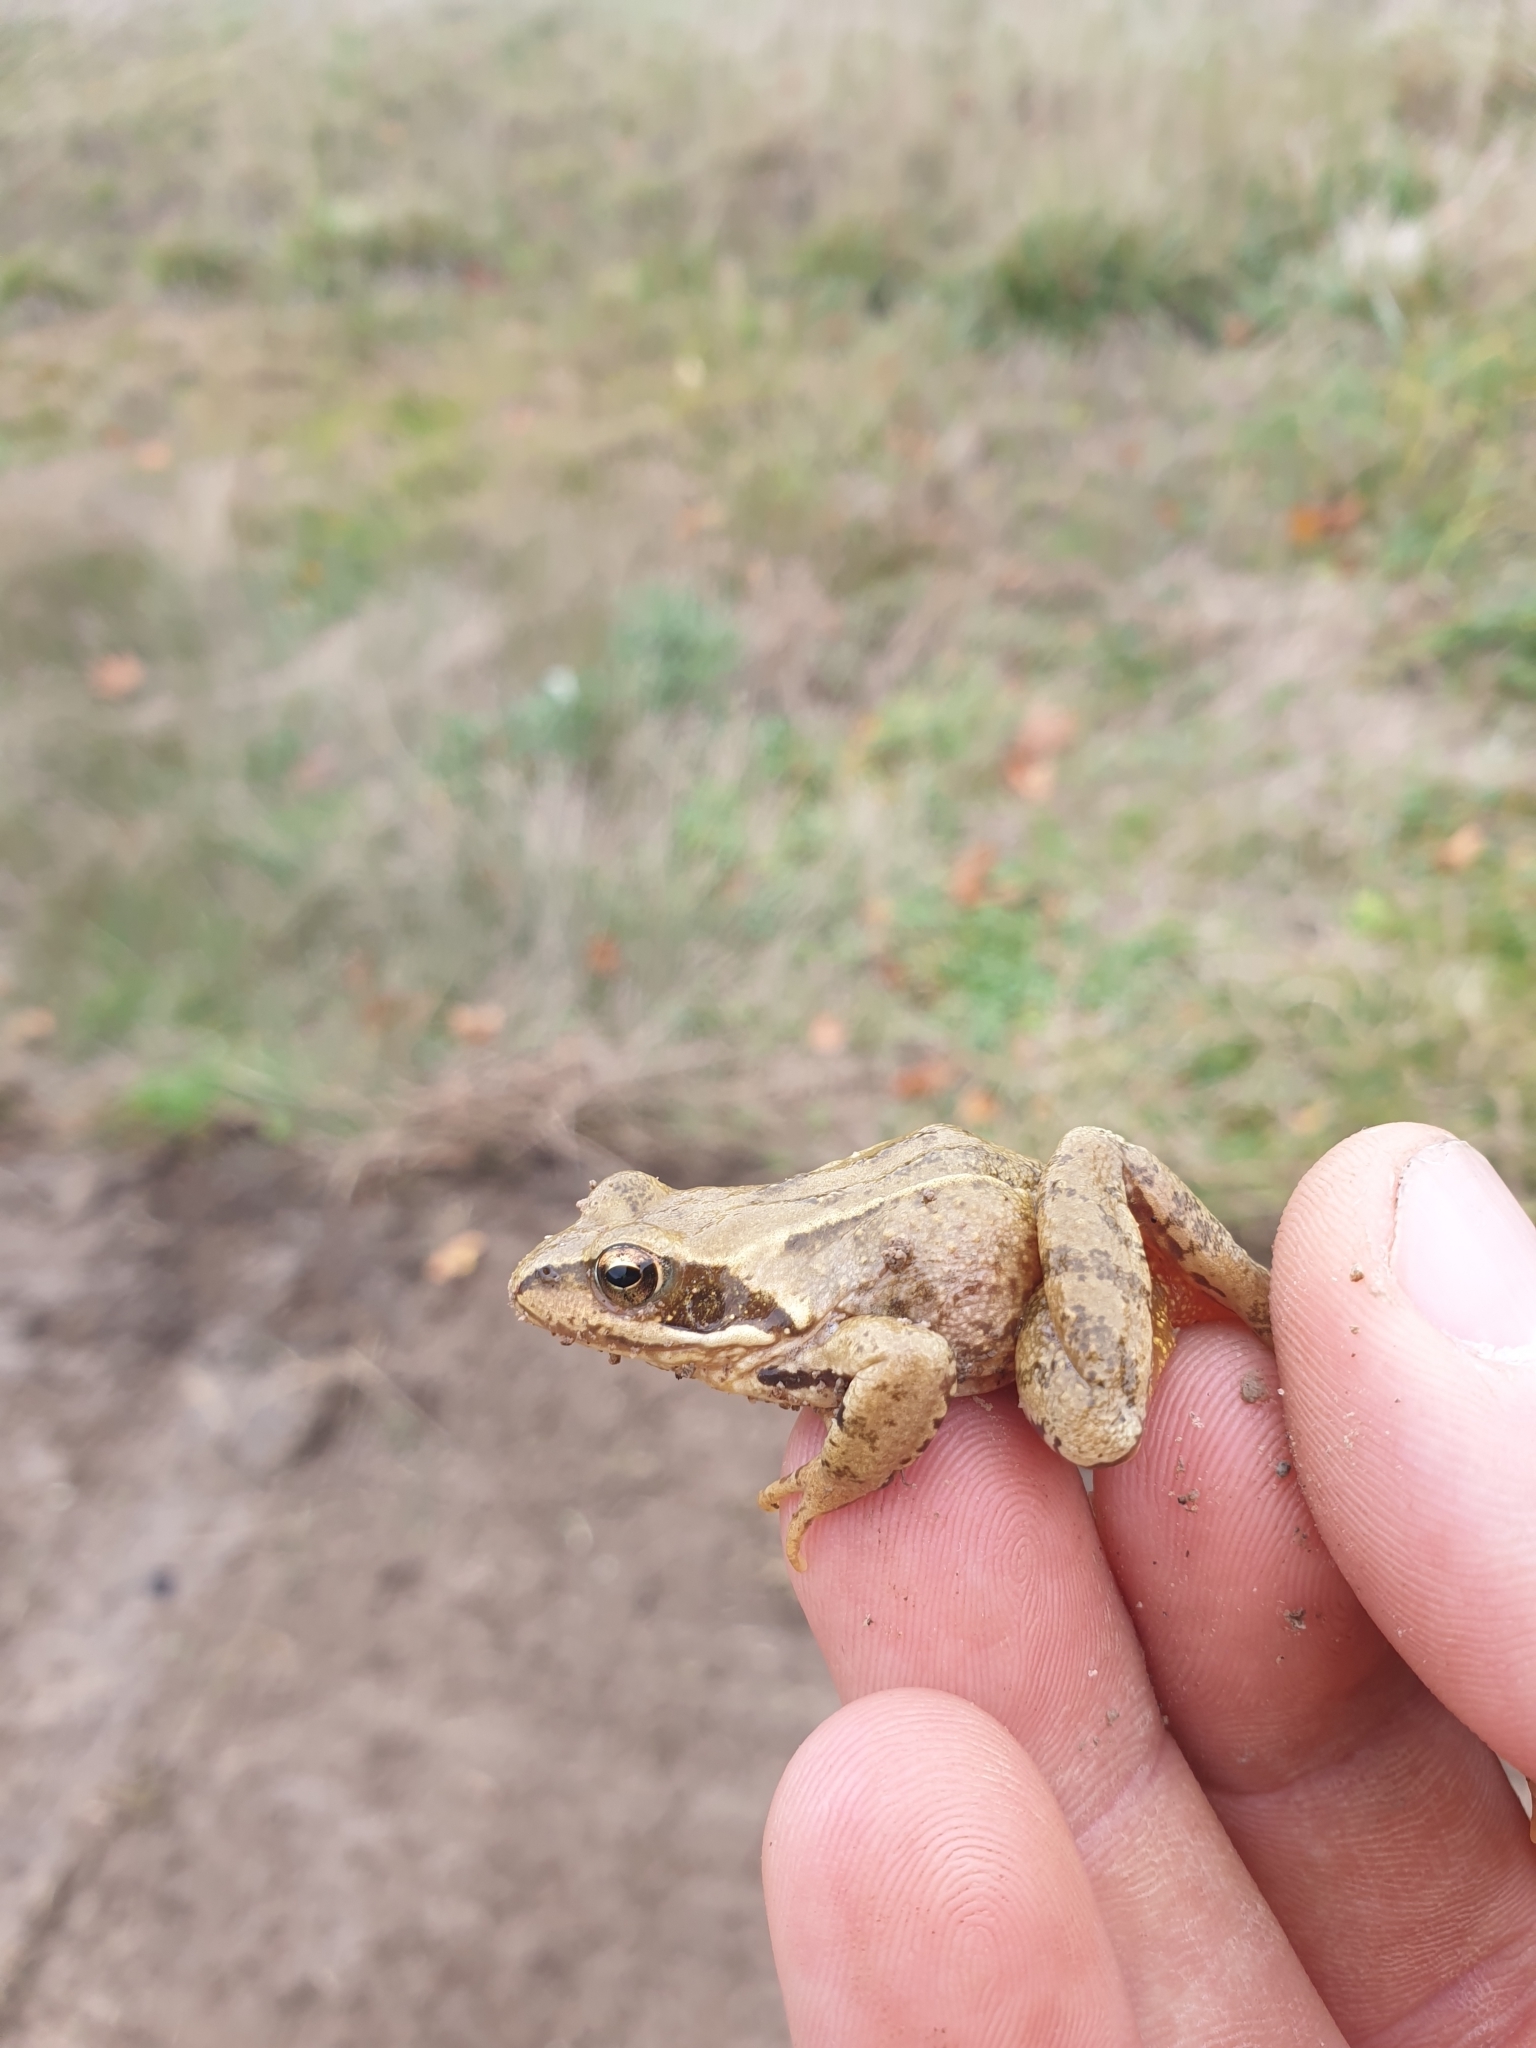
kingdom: Animalia
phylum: Chordata
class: Amphibia
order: Anura
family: Ranidae
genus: Rana
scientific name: Rana temporaria
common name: Common frog
